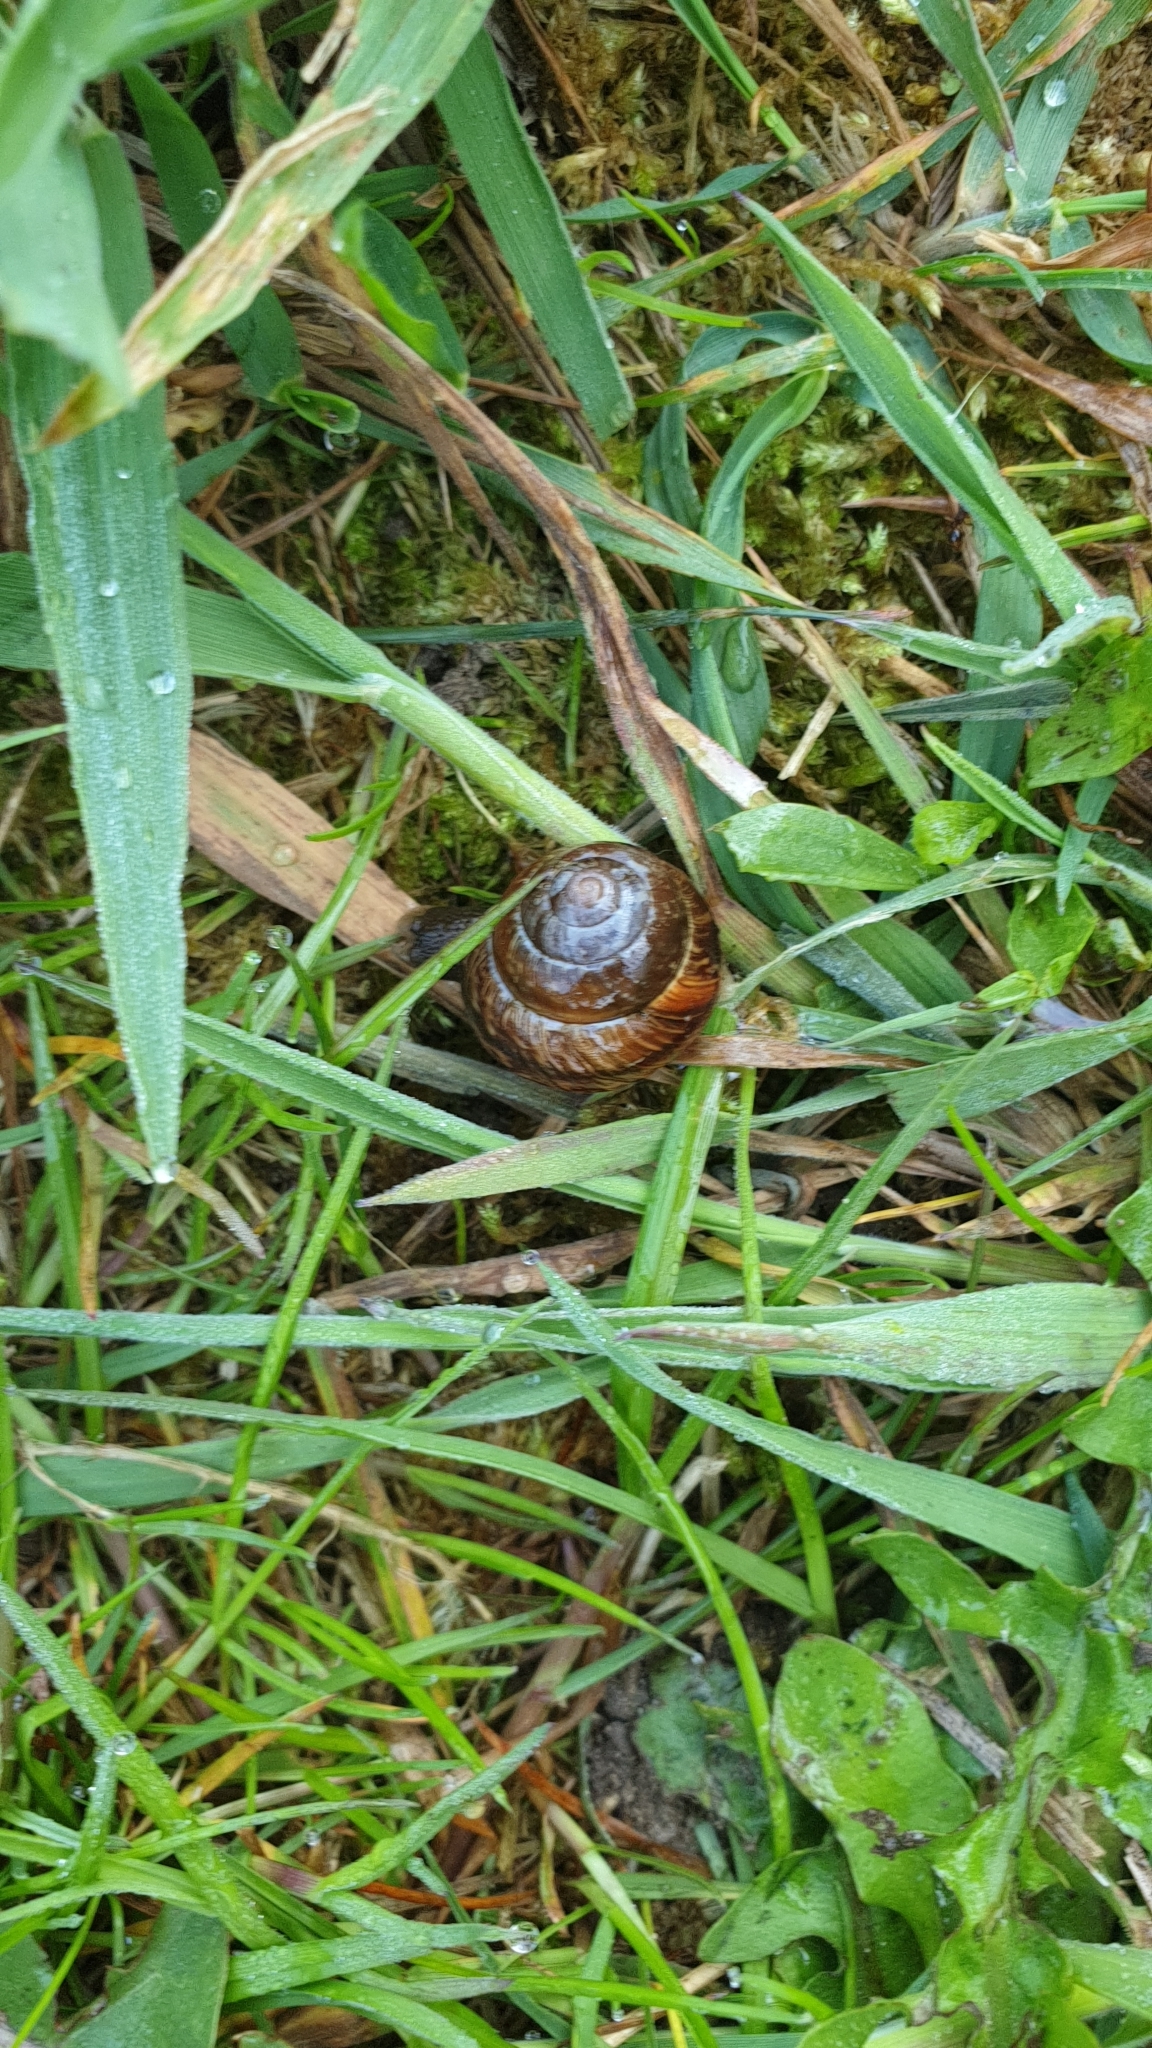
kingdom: Animalia
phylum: Mollusca
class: Gastropoda
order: Stylommatophora
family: Helicidae
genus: Arianta
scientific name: Arianta arbustorum
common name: Copse snail
